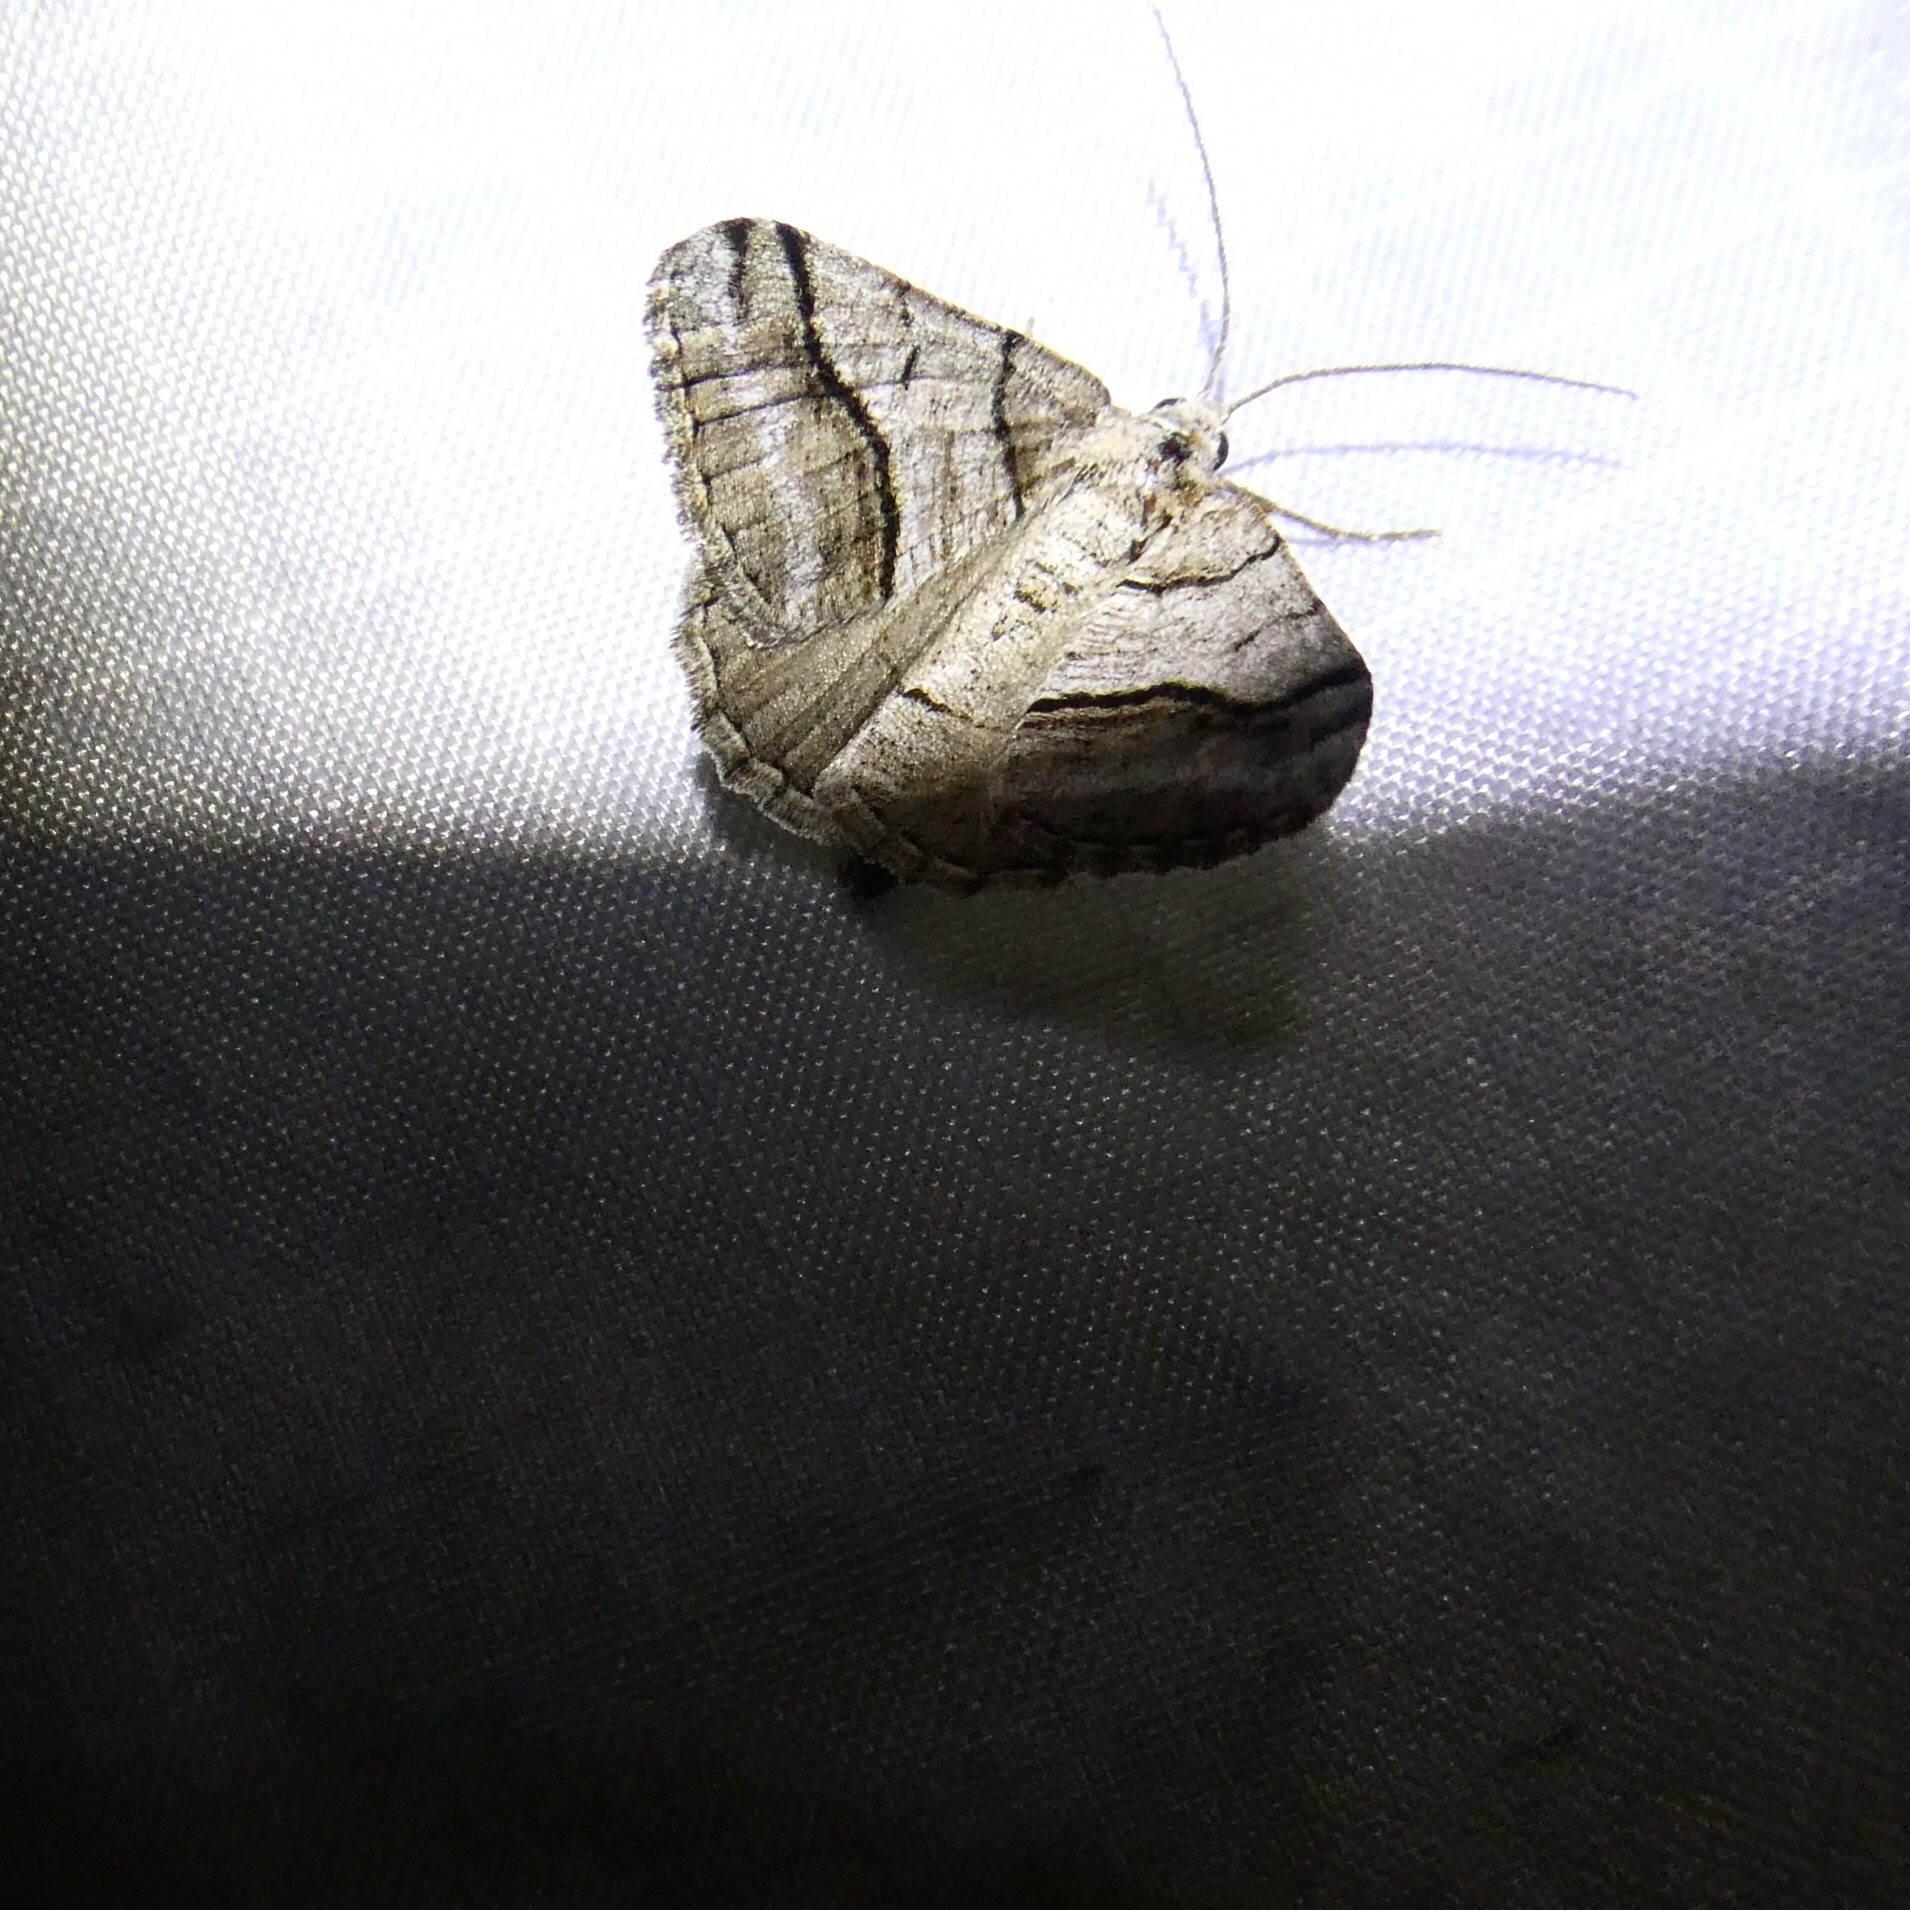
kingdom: Animalia
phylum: Arthropoda
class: Insecta
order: Lepidoptera
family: Geometridae
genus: Digrammia
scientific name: Digrammia continuata
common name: Curve-lined angle
